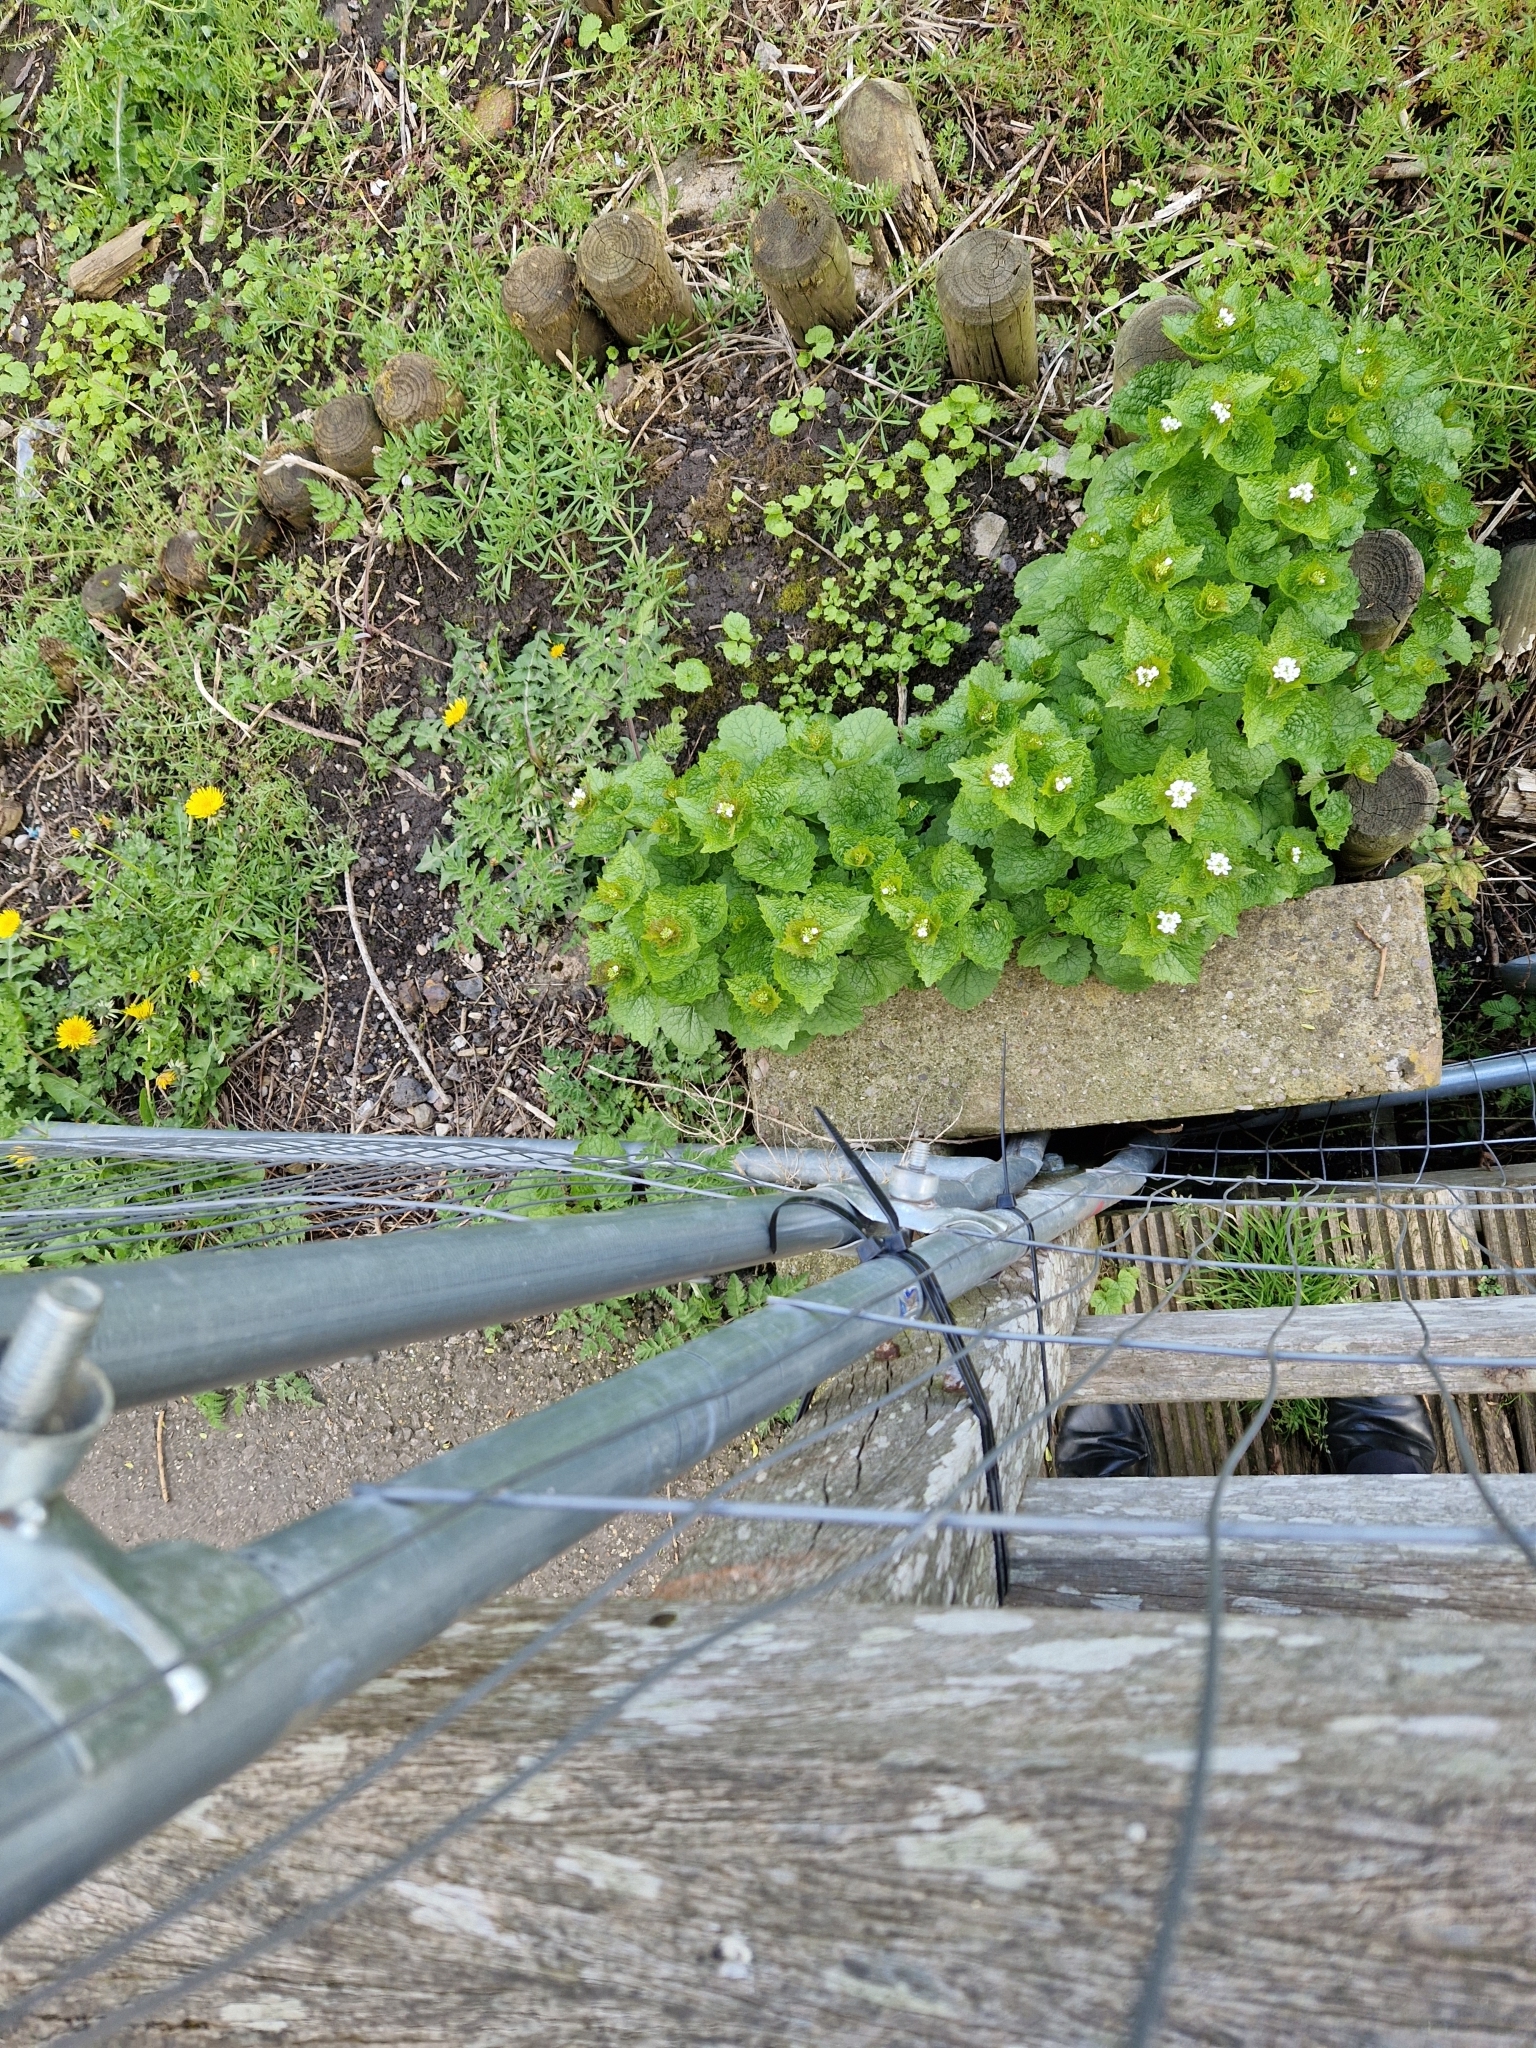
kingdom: Plantae
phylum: Tracheophyta
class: Magnoliopsida
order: Brassicales
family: Brassicaceae
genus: Alliaria
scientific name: Alliaria petiolata
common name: Garlic mustard
